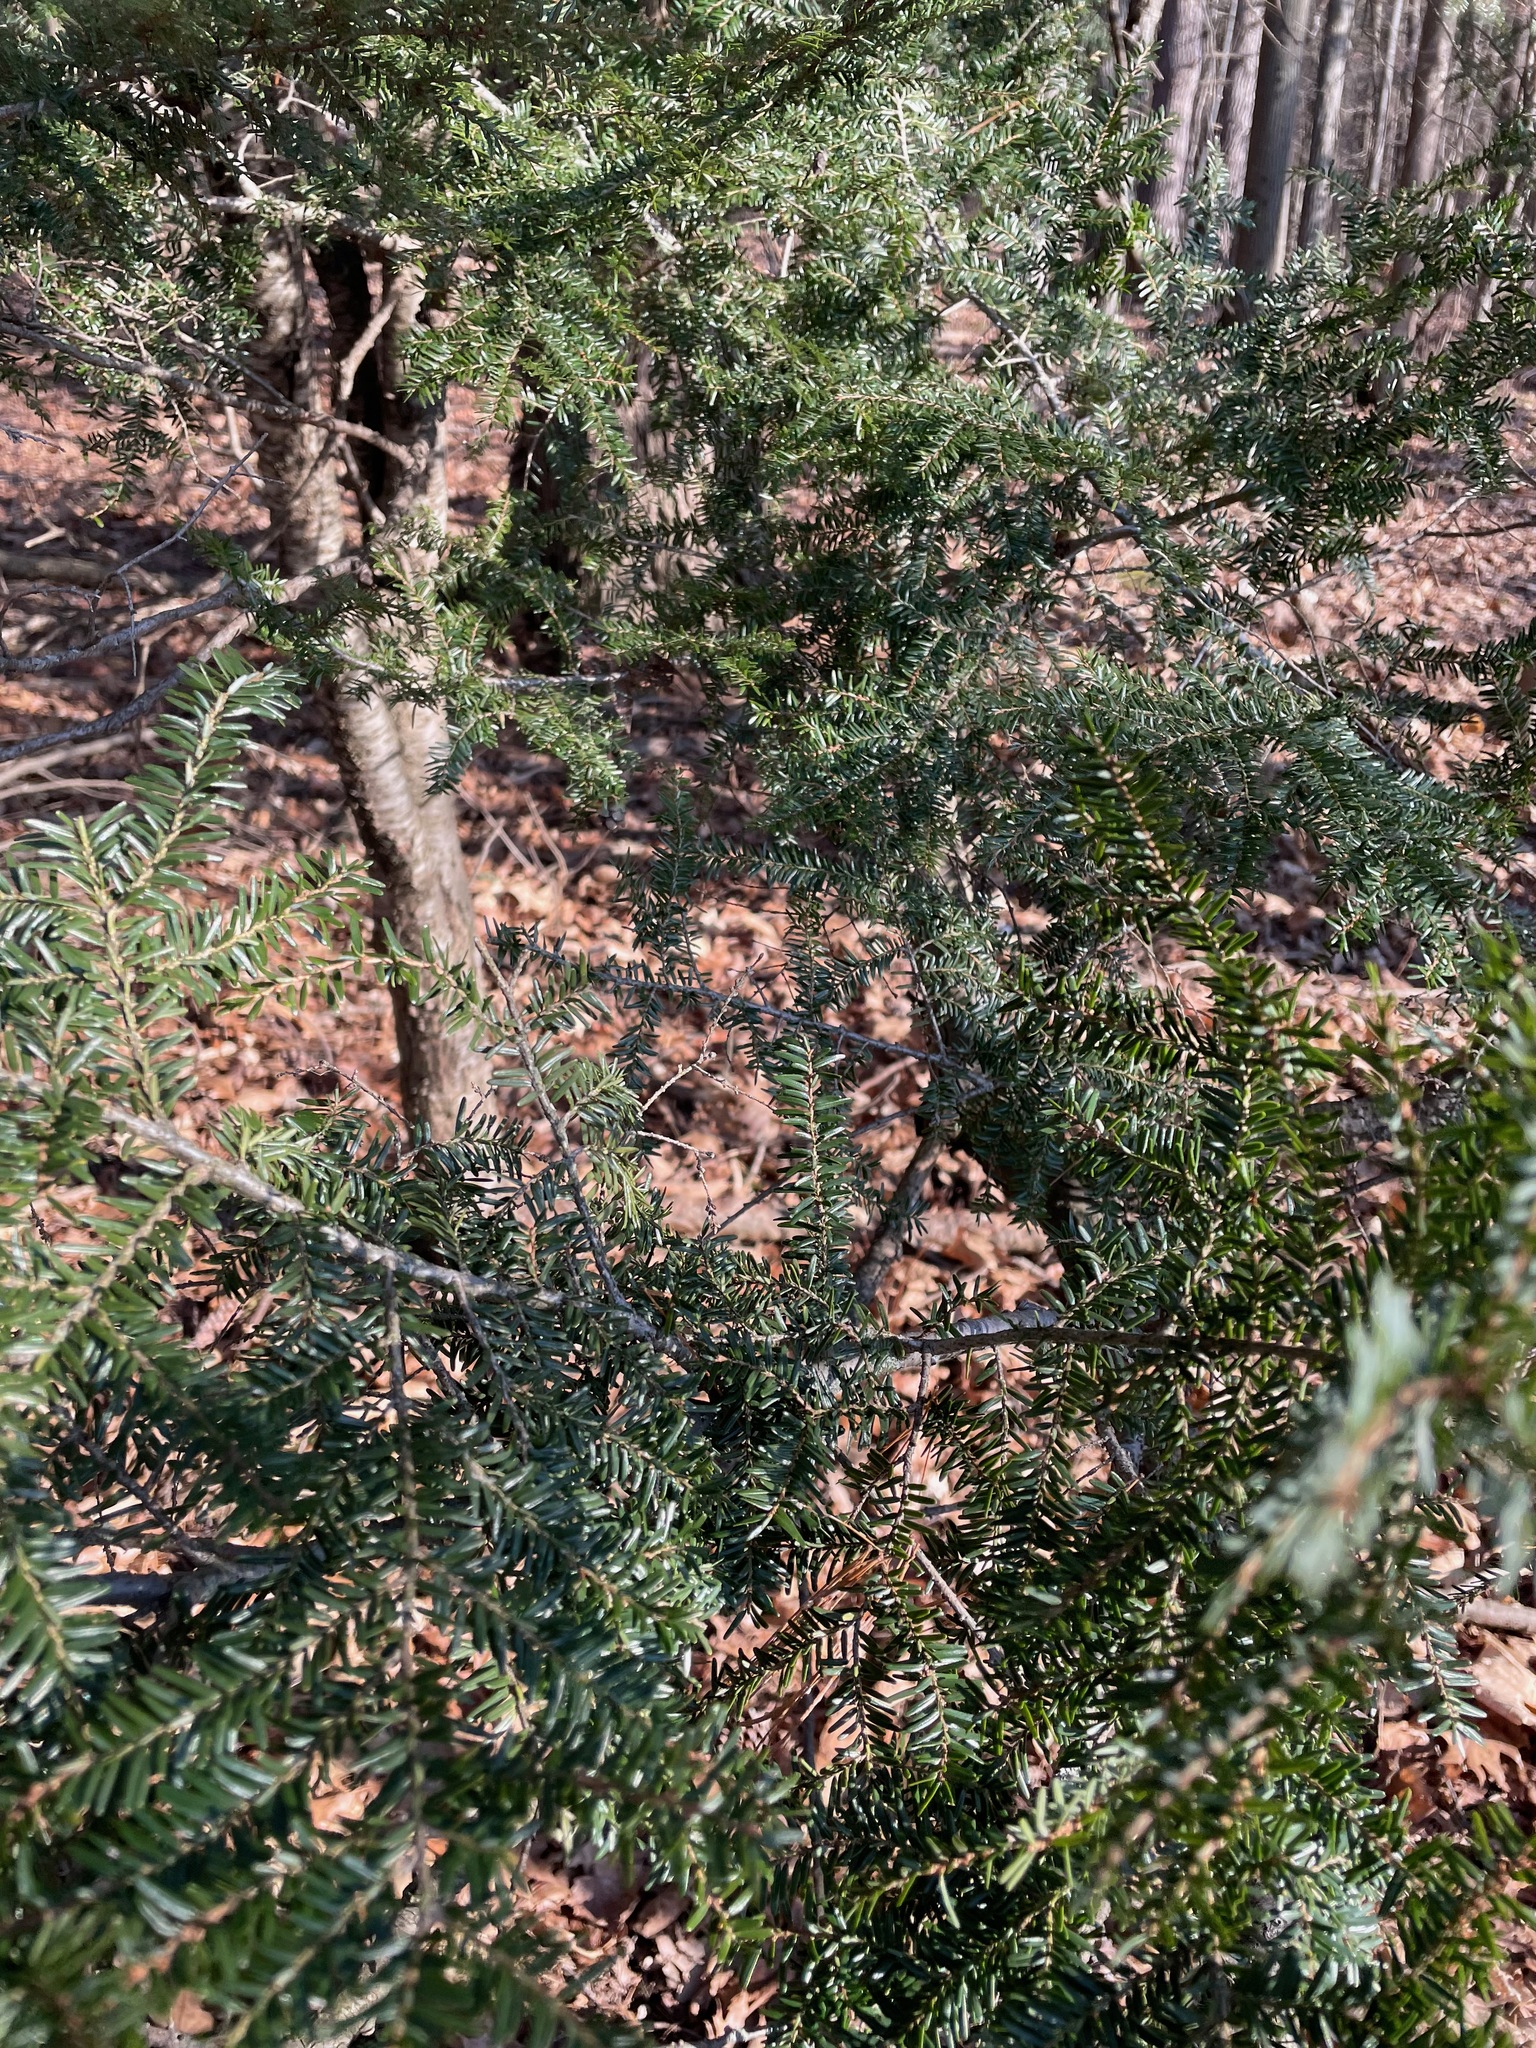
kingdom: Plantae
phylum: Tracheophyta
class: Pinopsida
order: Pinales
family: Pinaceae
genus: Tsuga
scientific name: Tsuga canadensis
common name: Eastern hemlock
